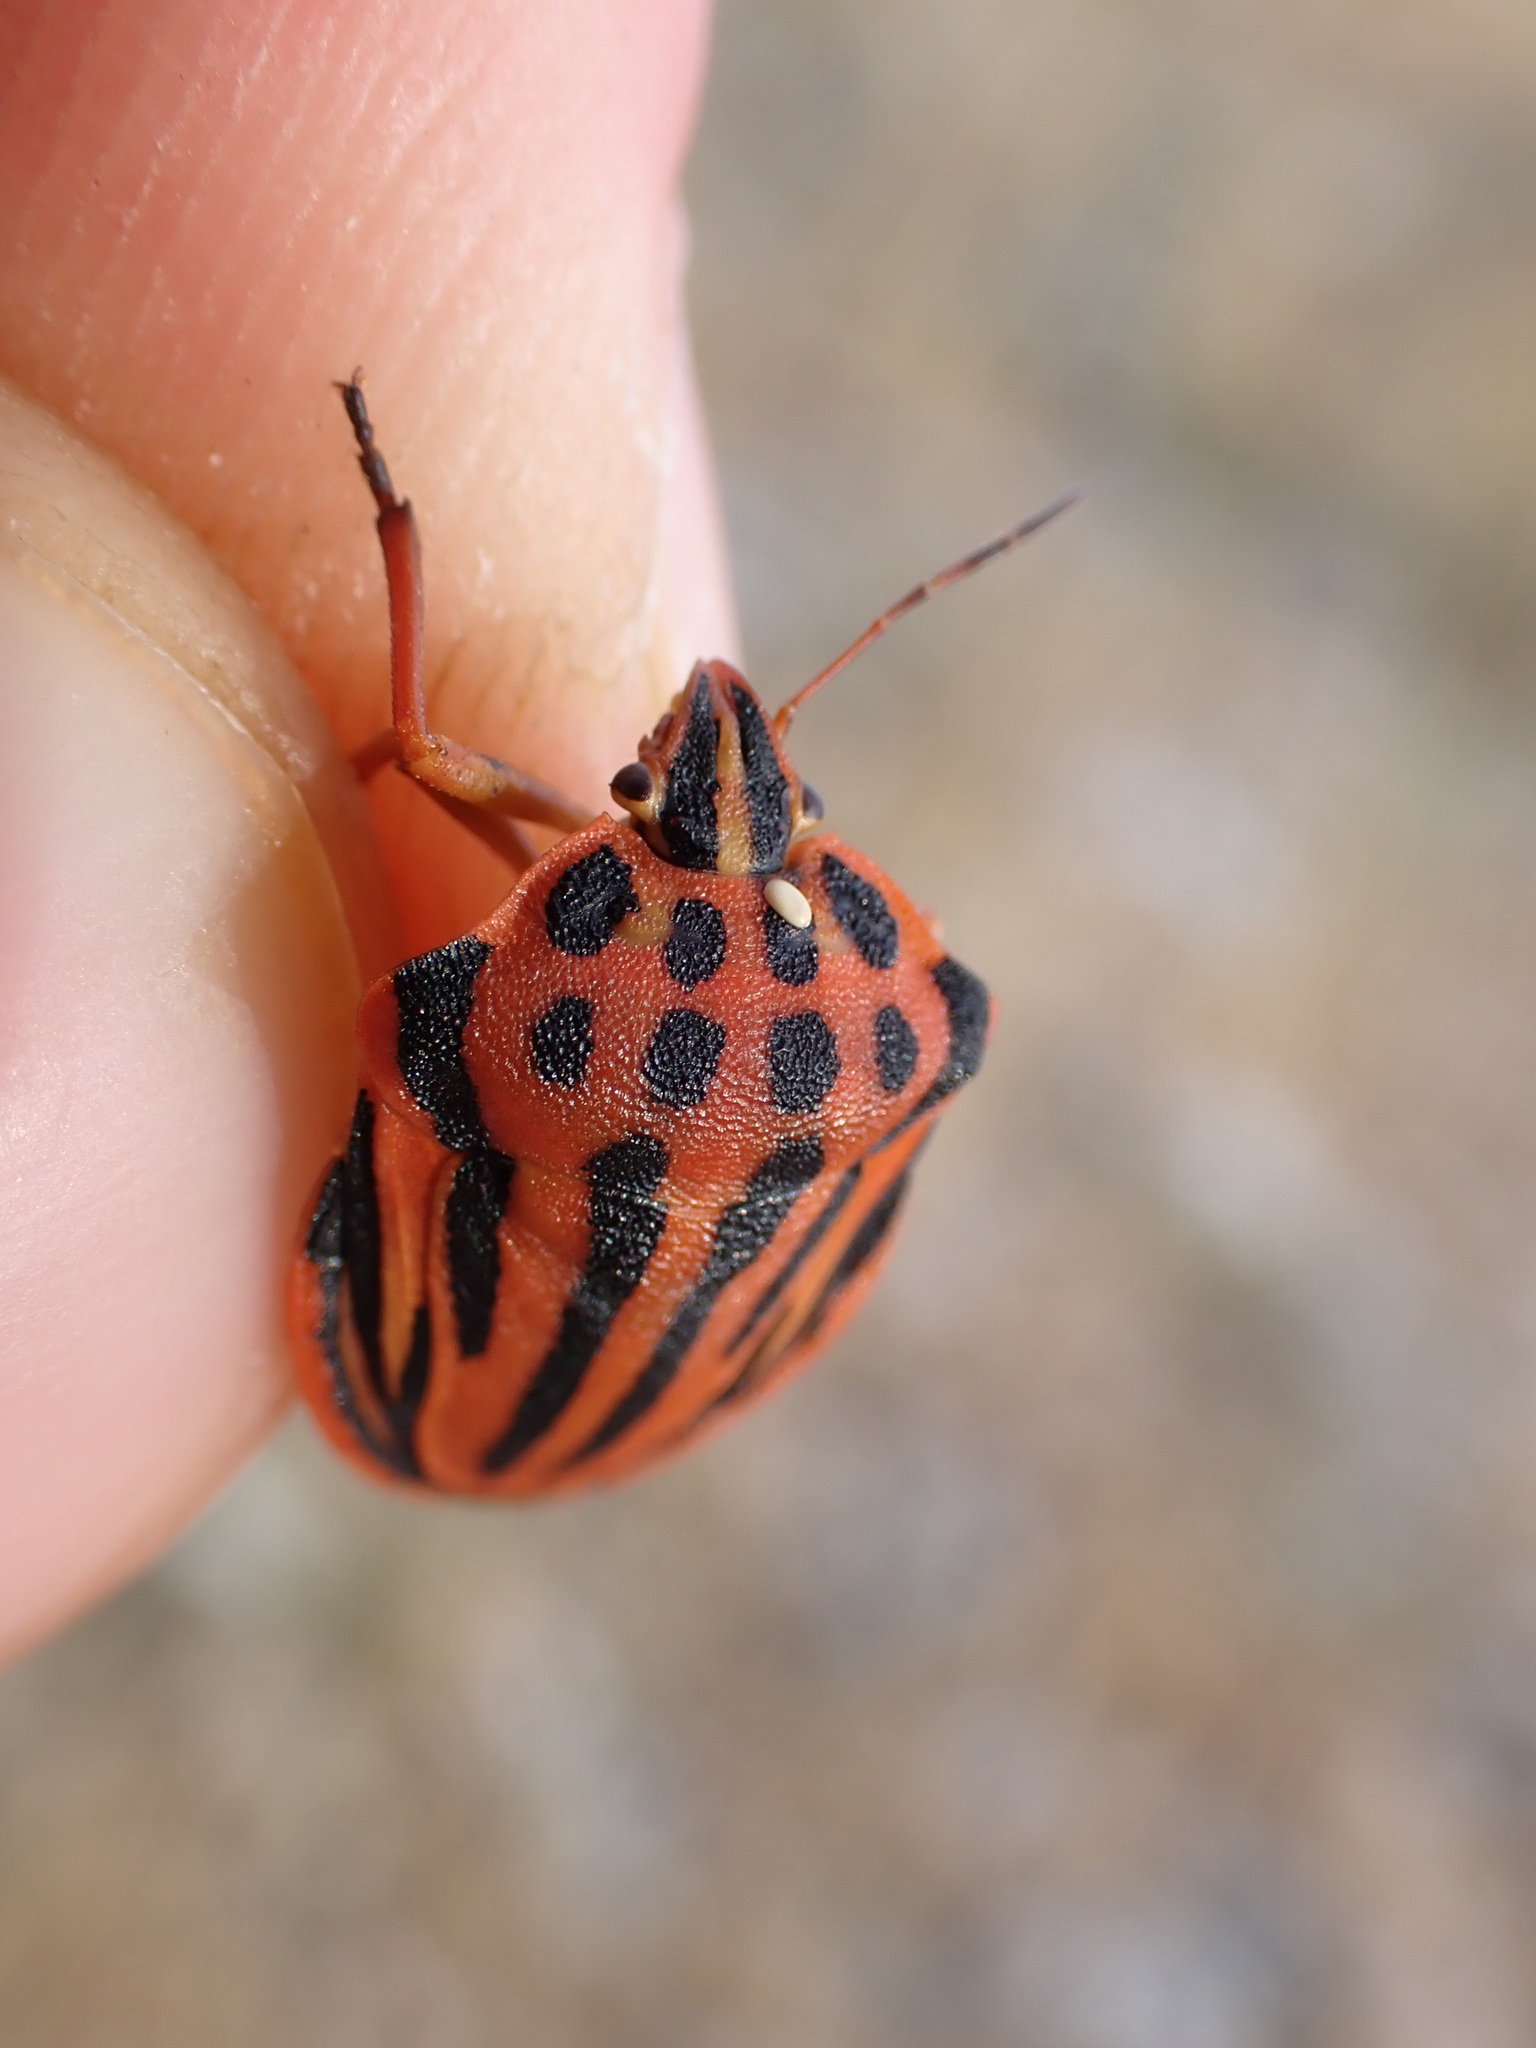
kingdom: Animalia
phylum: Arthropoda
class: Insecta
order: Hemiptera
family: Pentatomidae
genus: Graphosoma
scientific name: Graphosoma semipunctatum
